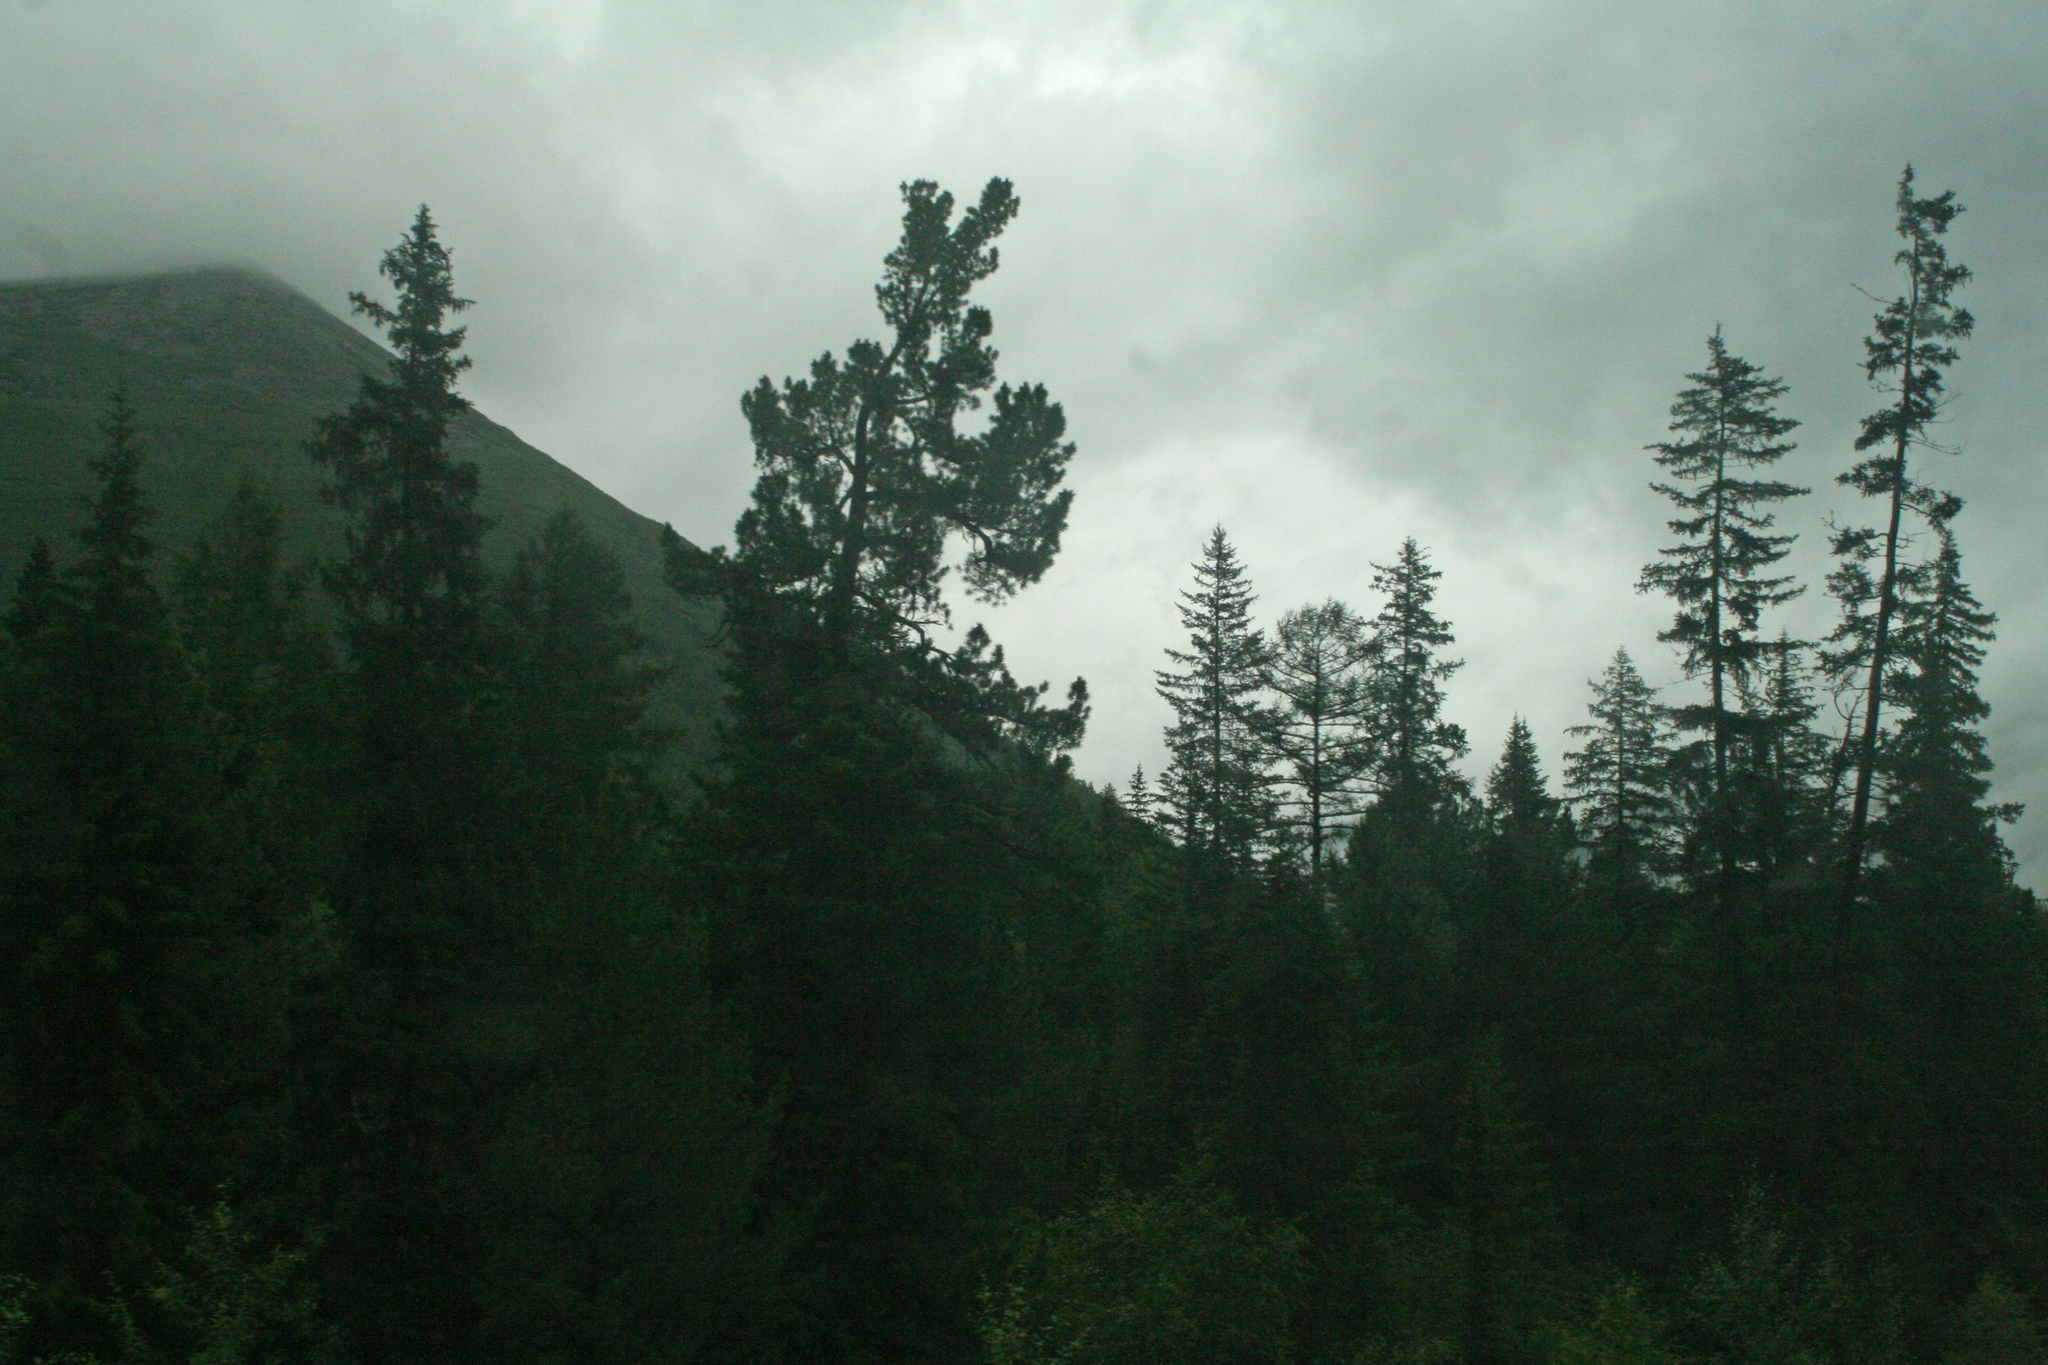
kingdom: Plantae
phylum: Tracheophyta
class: Pinopsida
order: Pinales
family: Pinaceae
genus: Picea
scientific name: Picea obovata
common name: Siberian spruce
